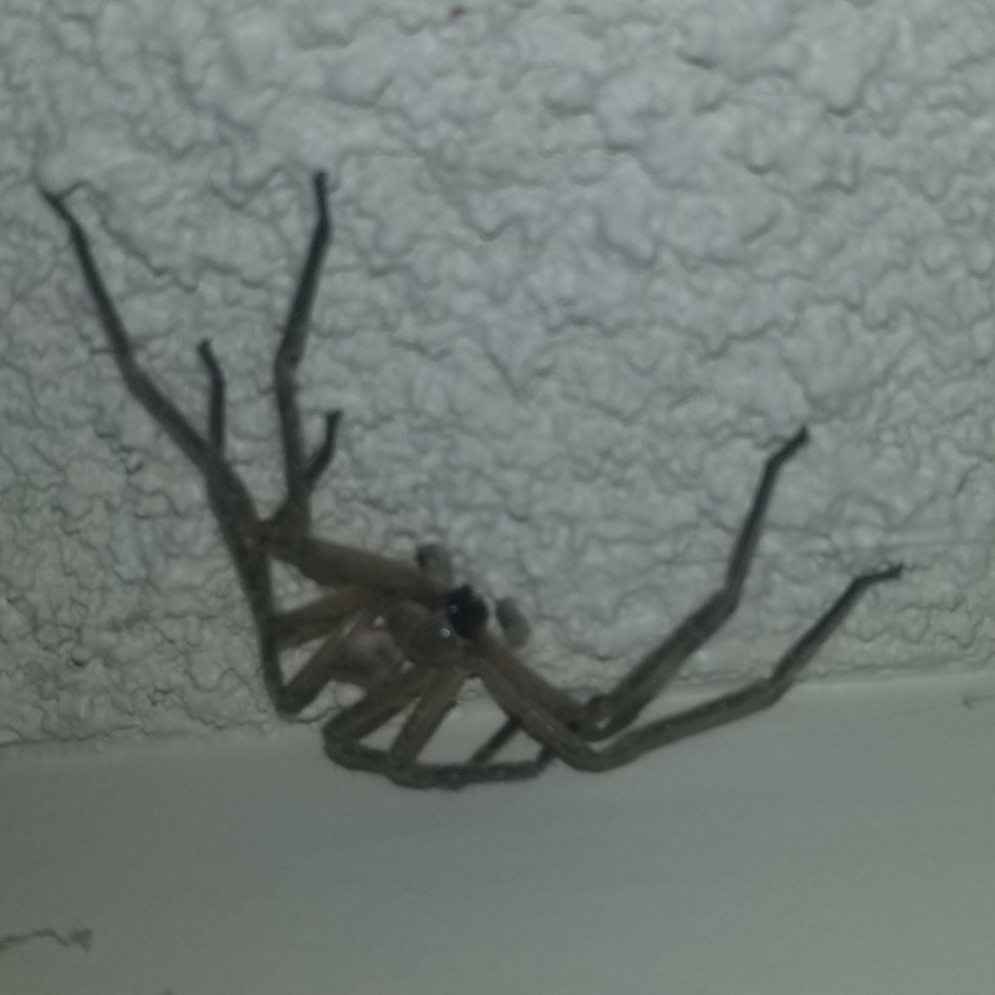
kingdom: Animalia
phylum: Arthropoda
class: Arachnida
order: Araneae
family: Sparassidae
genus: Olios
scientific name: Olios giganteus
